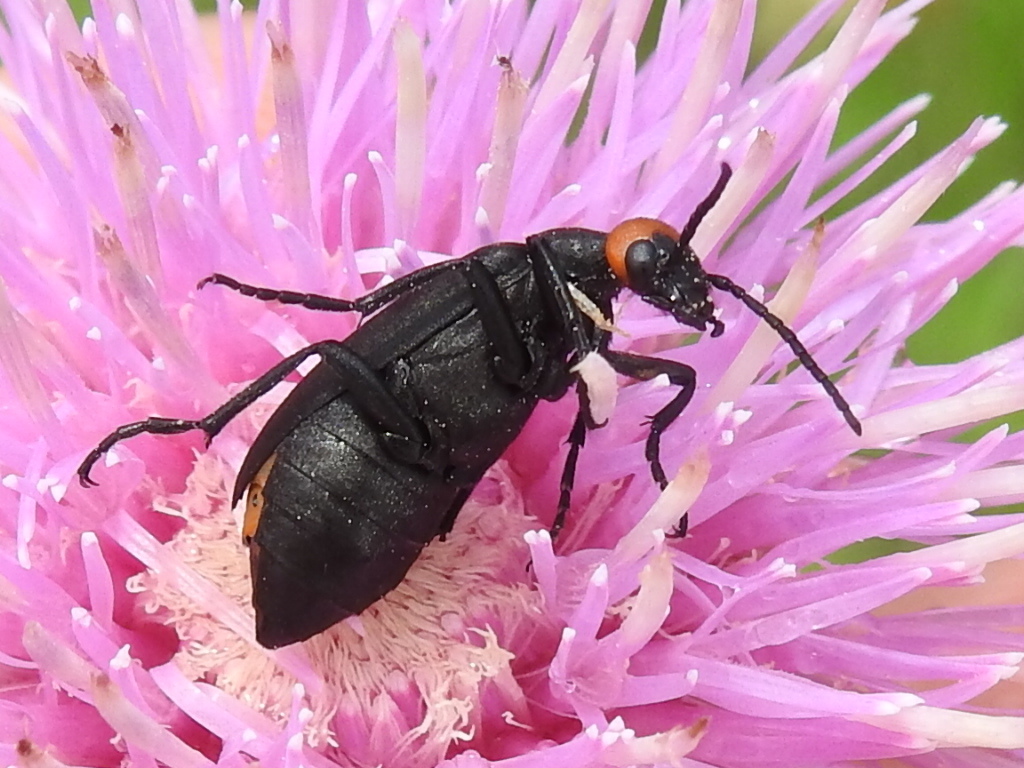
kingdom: Animalia
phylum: Arthropoda
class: Insecta
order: Coleoptera
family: Meloidae
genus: Epicauta
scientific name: Epicauta atrata
